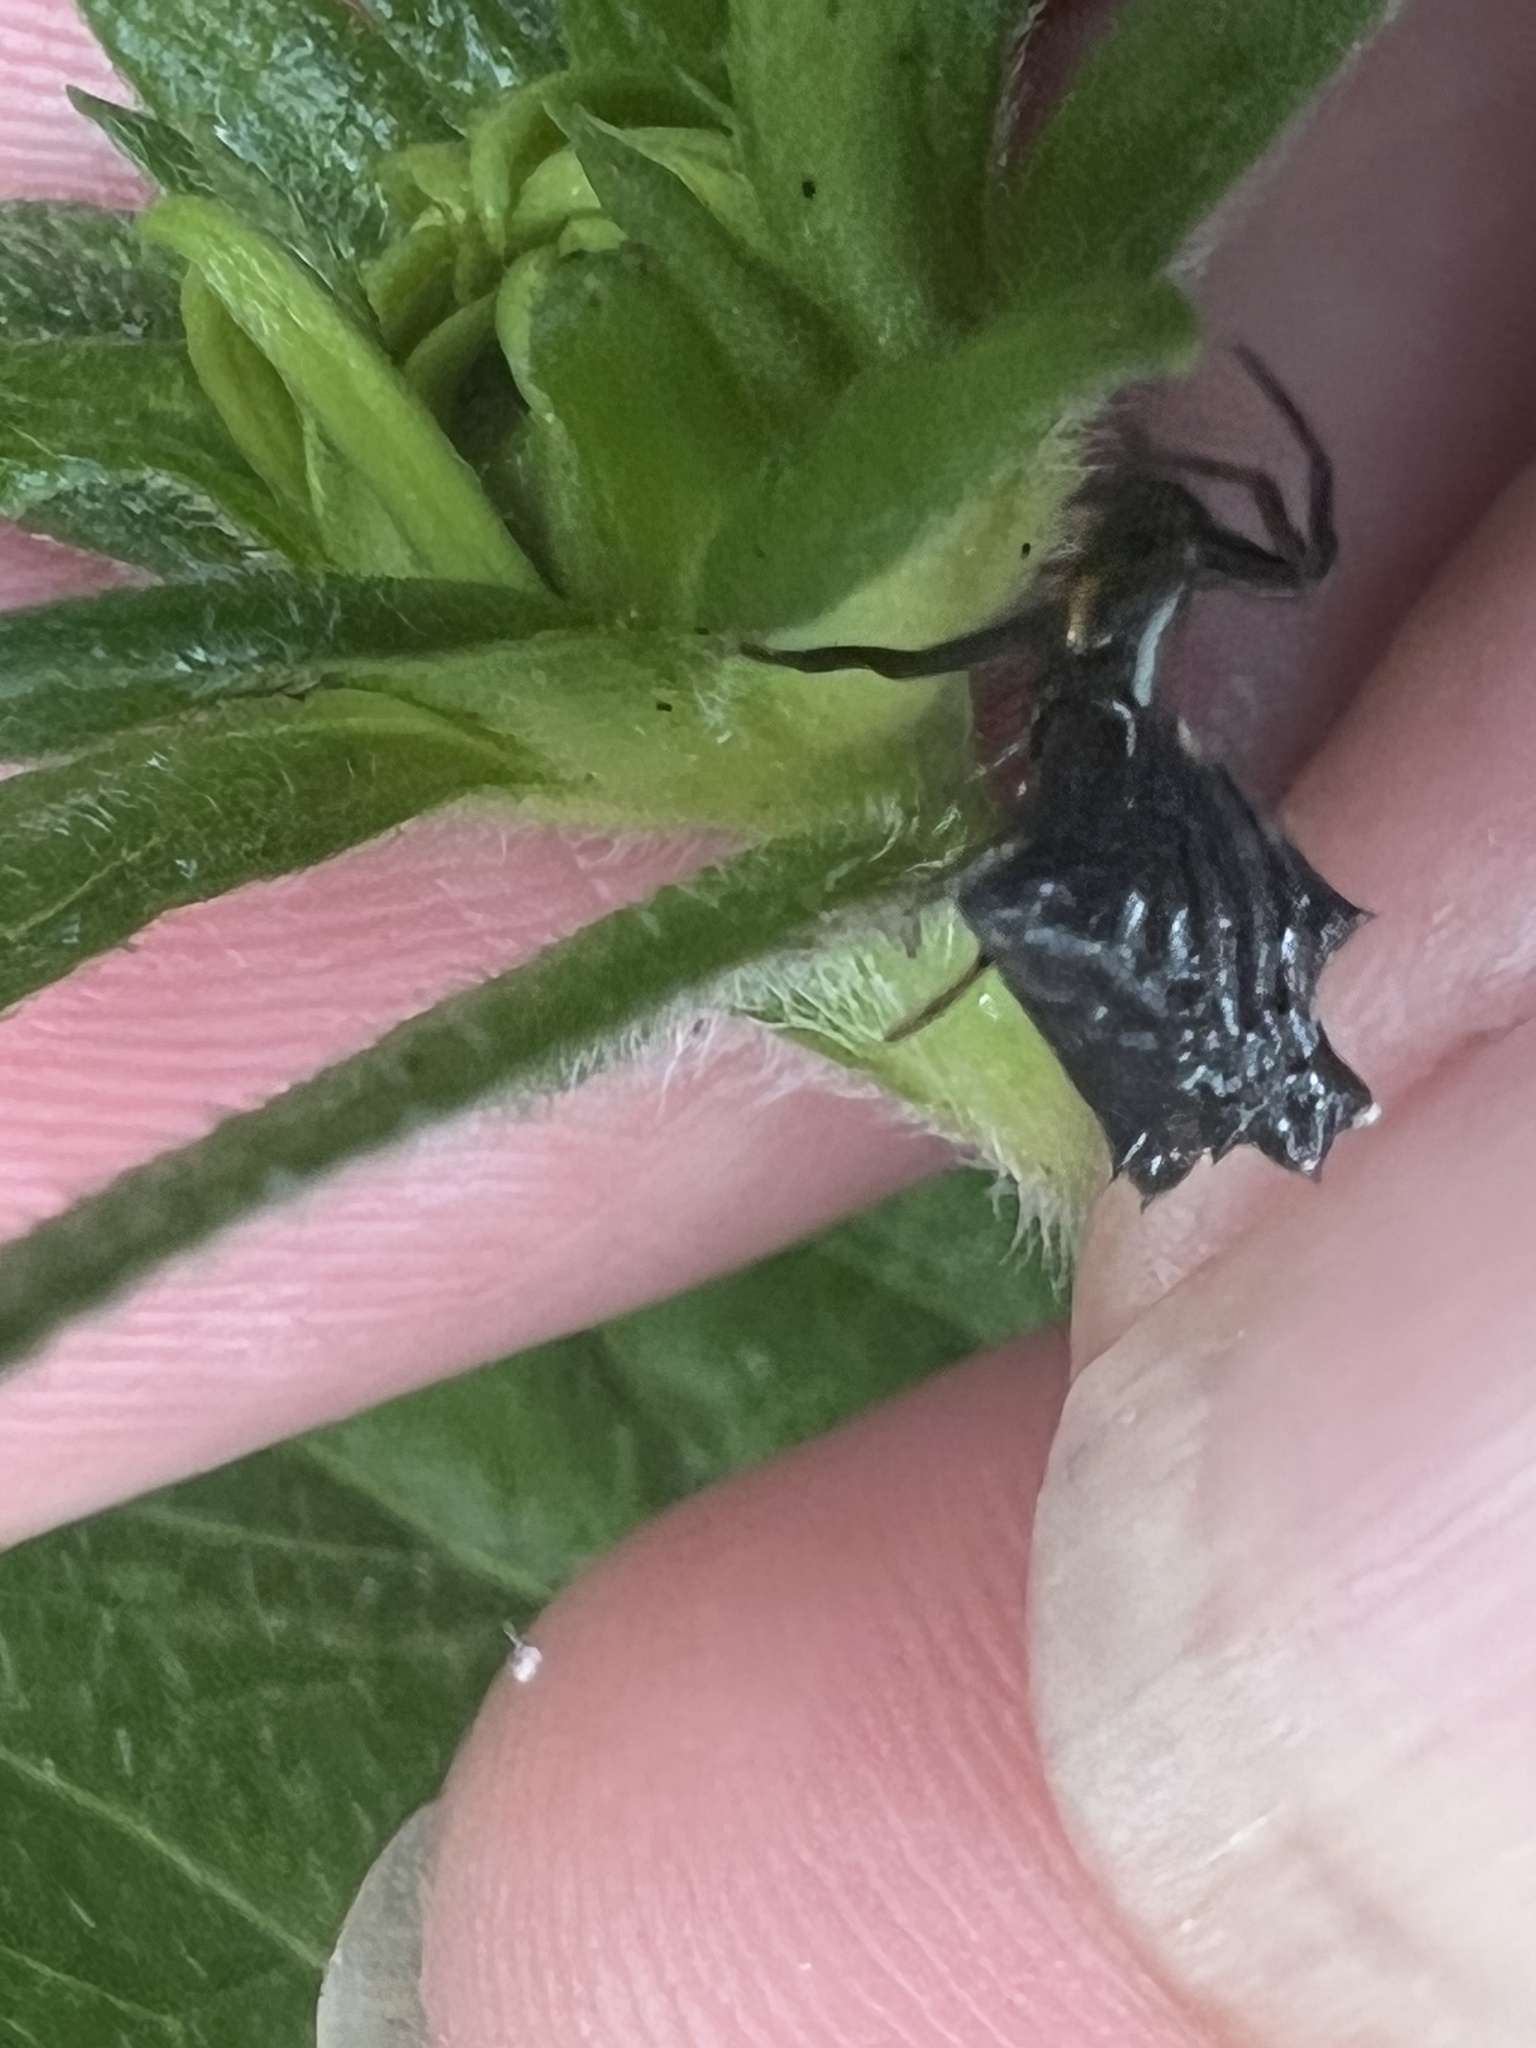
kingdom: Animalia
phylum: Arthropoda
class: Arachnida
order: Araneae
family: Araneidae
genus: Micrathena
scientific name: Micrathena gracilis
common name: Orb weavers
